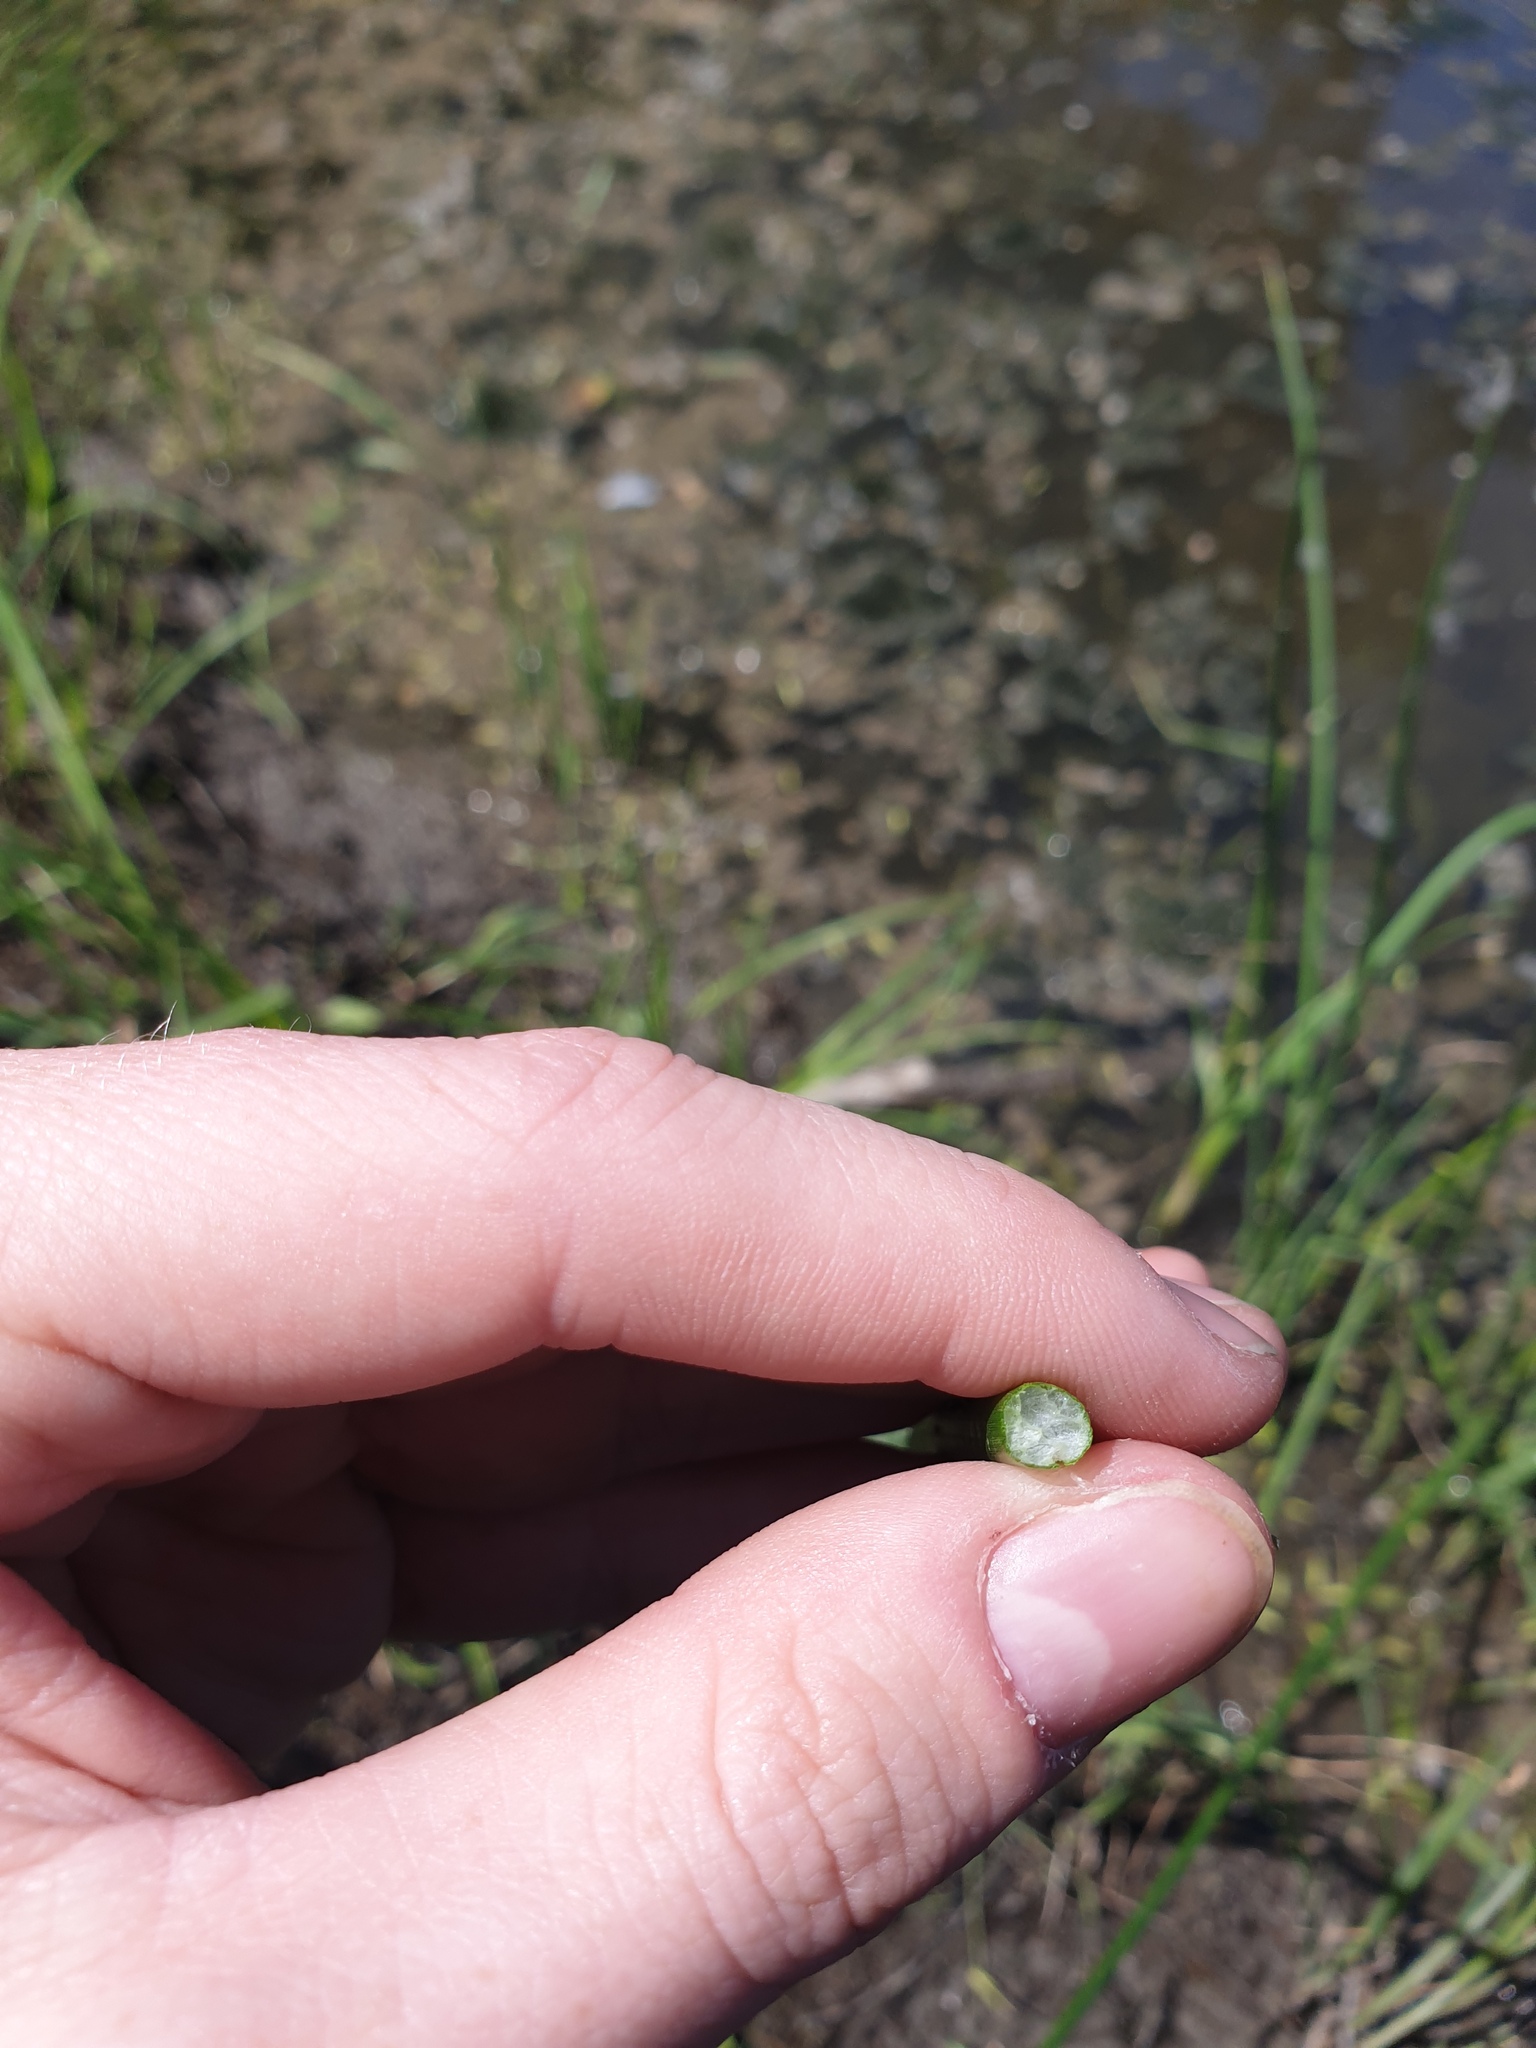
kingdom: Plantae
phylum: Tracheophyta
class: Liliopsida
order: Poales
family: Cyperaceae
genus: Schoenoplectus
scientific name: Schoenoplectus tabernaemontani
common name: Grey club-rush
